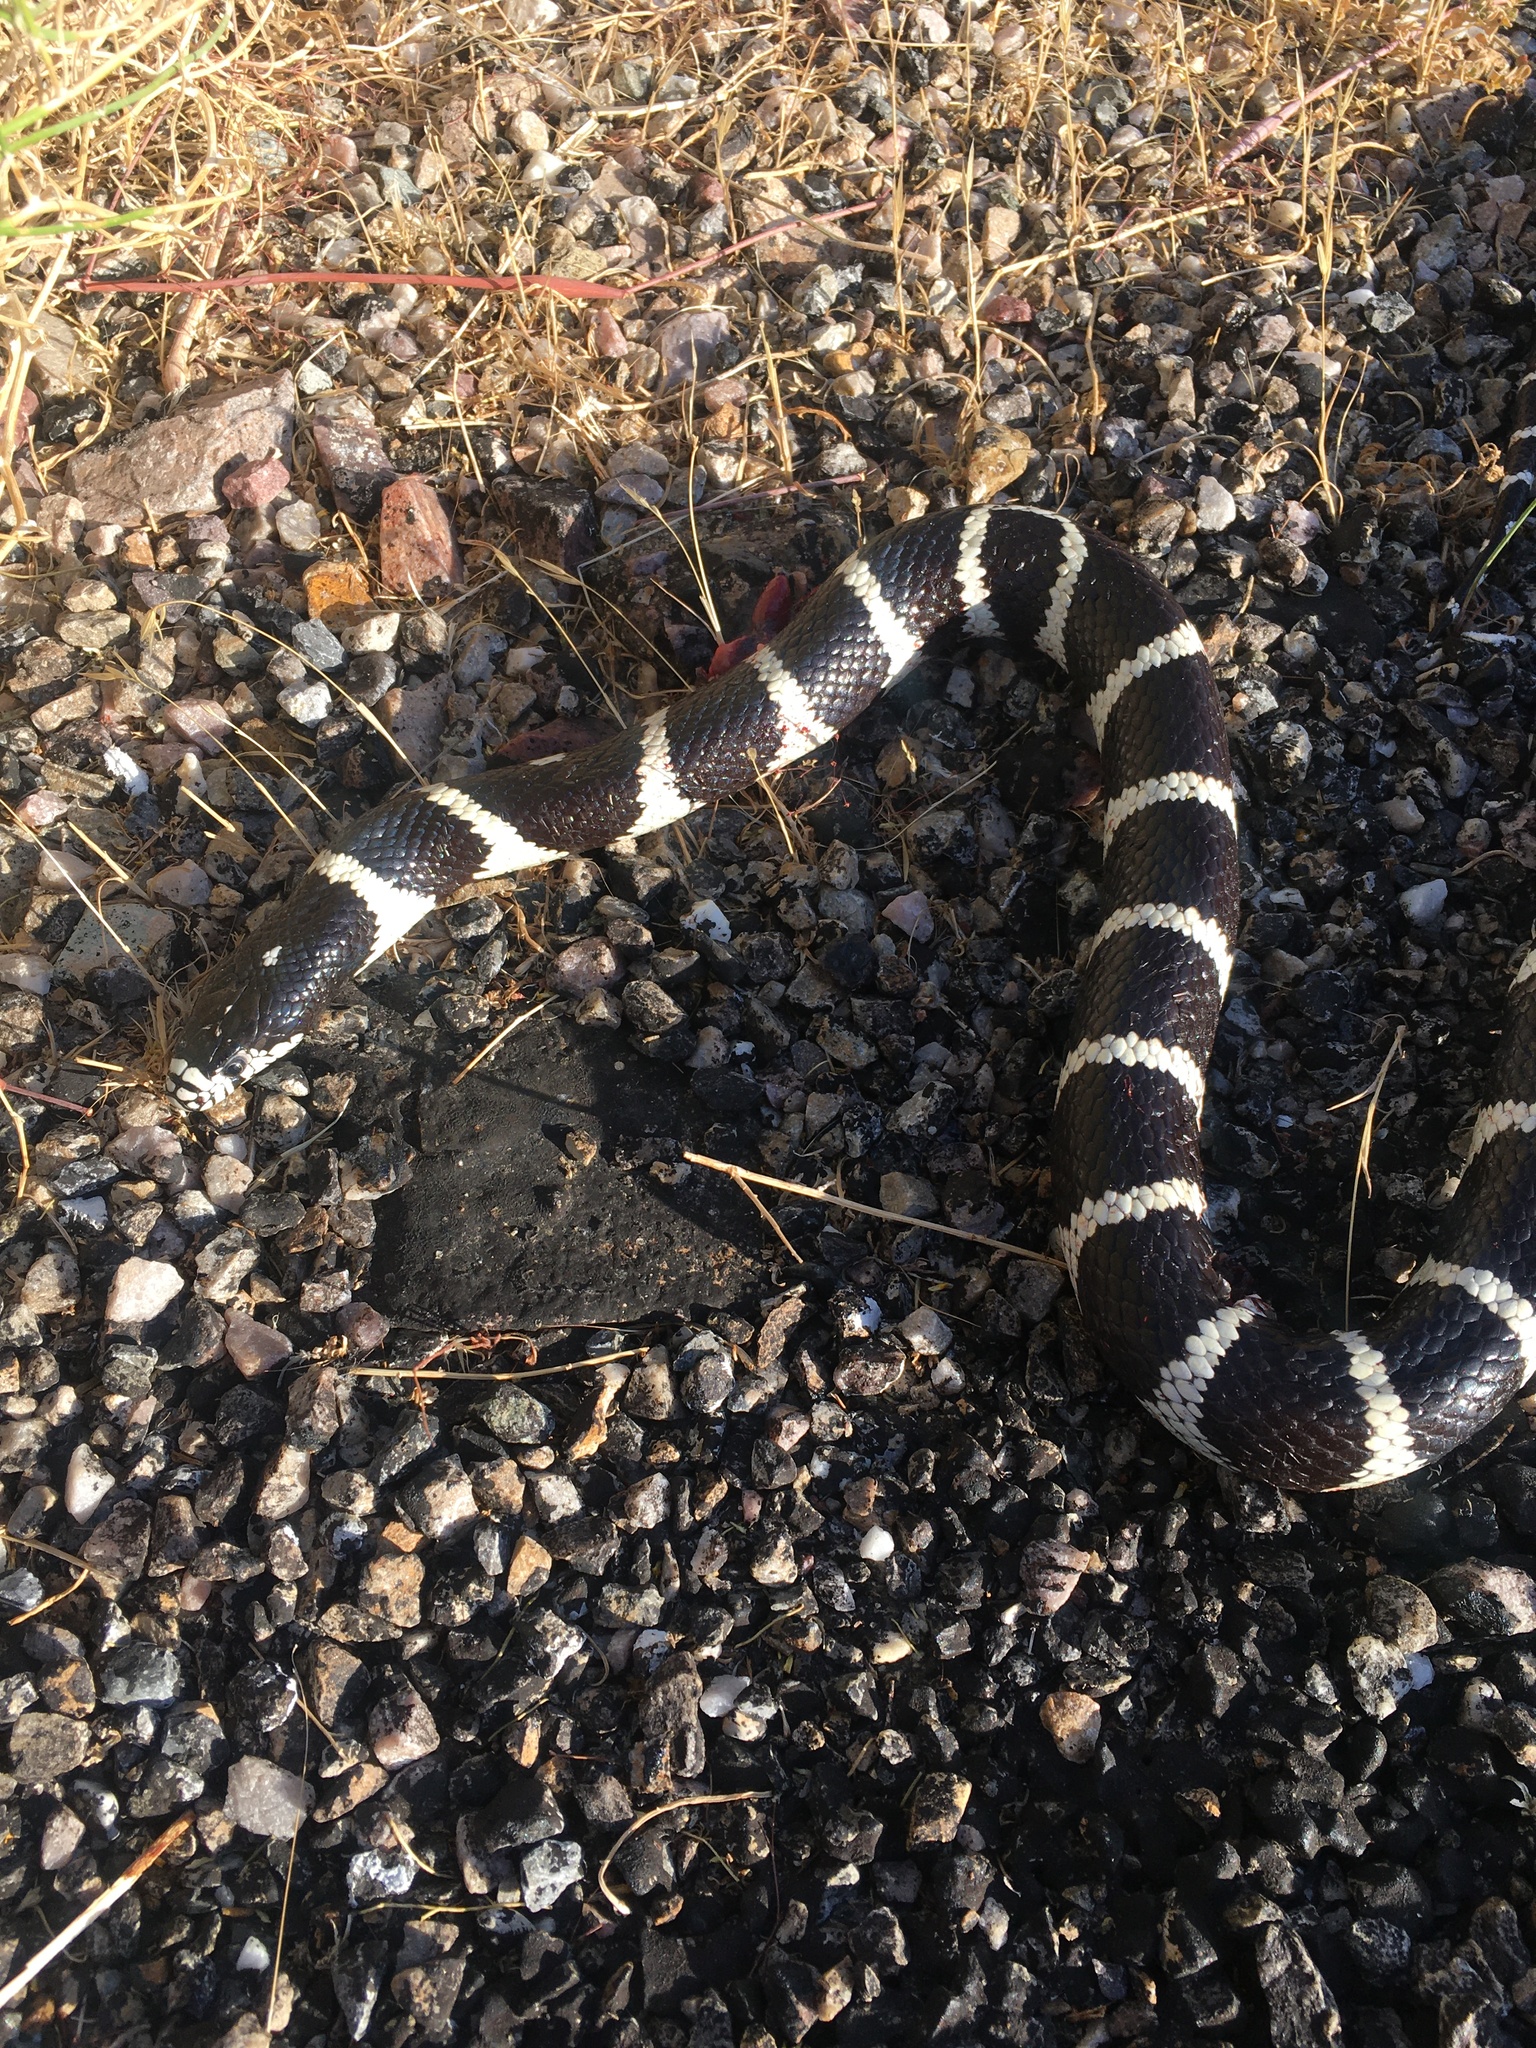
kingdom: Animalia
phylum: Chordata
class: Squamata
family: Colubridae
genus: Lampropeltis
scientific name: Lampropeltis californiae
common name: California kingsnake
